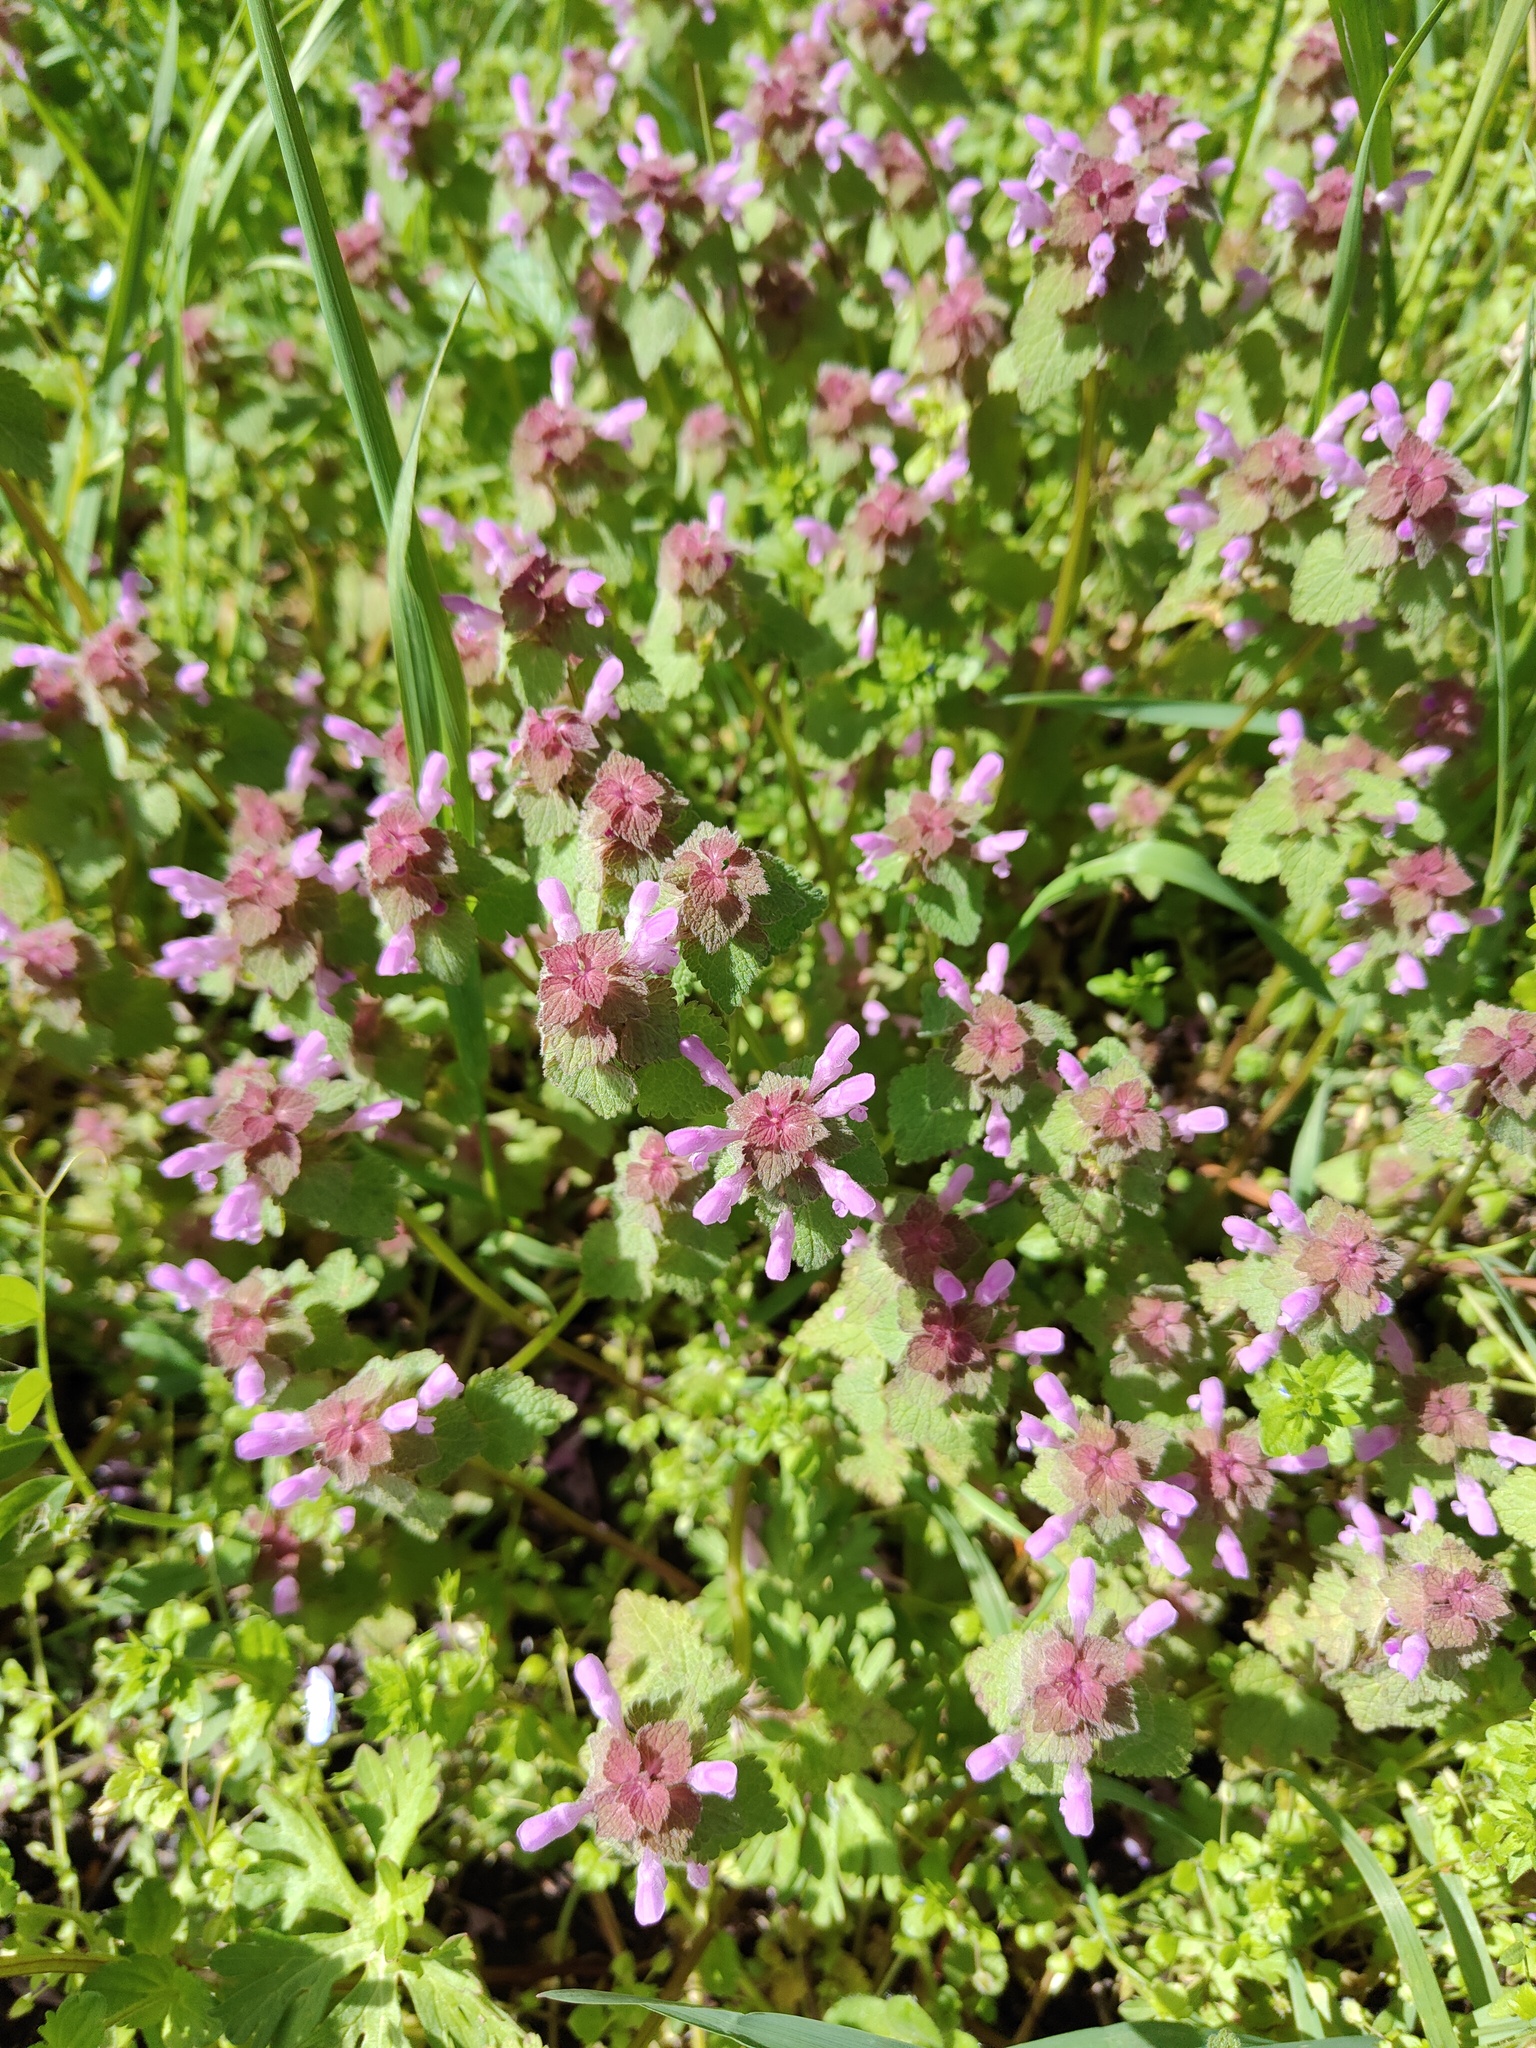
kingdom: Plantae
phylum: Tracheophyta
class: Magnoliopsida
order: Lamiales
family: Lamiaceae
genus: Lamium
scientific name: Lamium purpureum
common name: Red dead-nettle
